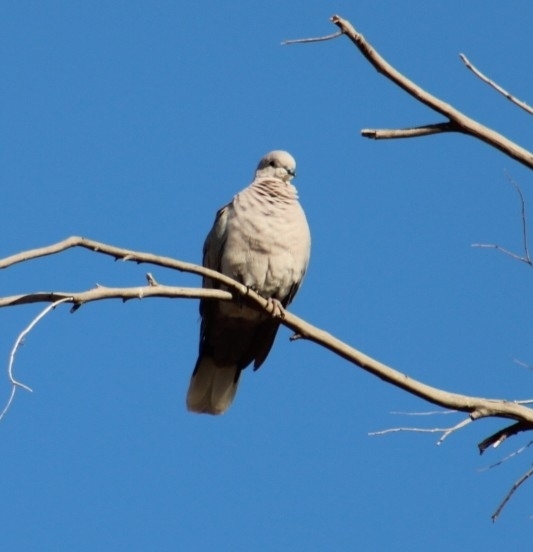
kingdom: Animalia
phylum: Chordata
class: Aves
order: Columbiformes
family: Columbidae
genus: Streptopelia
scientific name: Streptopelia decaocto
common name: Eurasian collared dove
